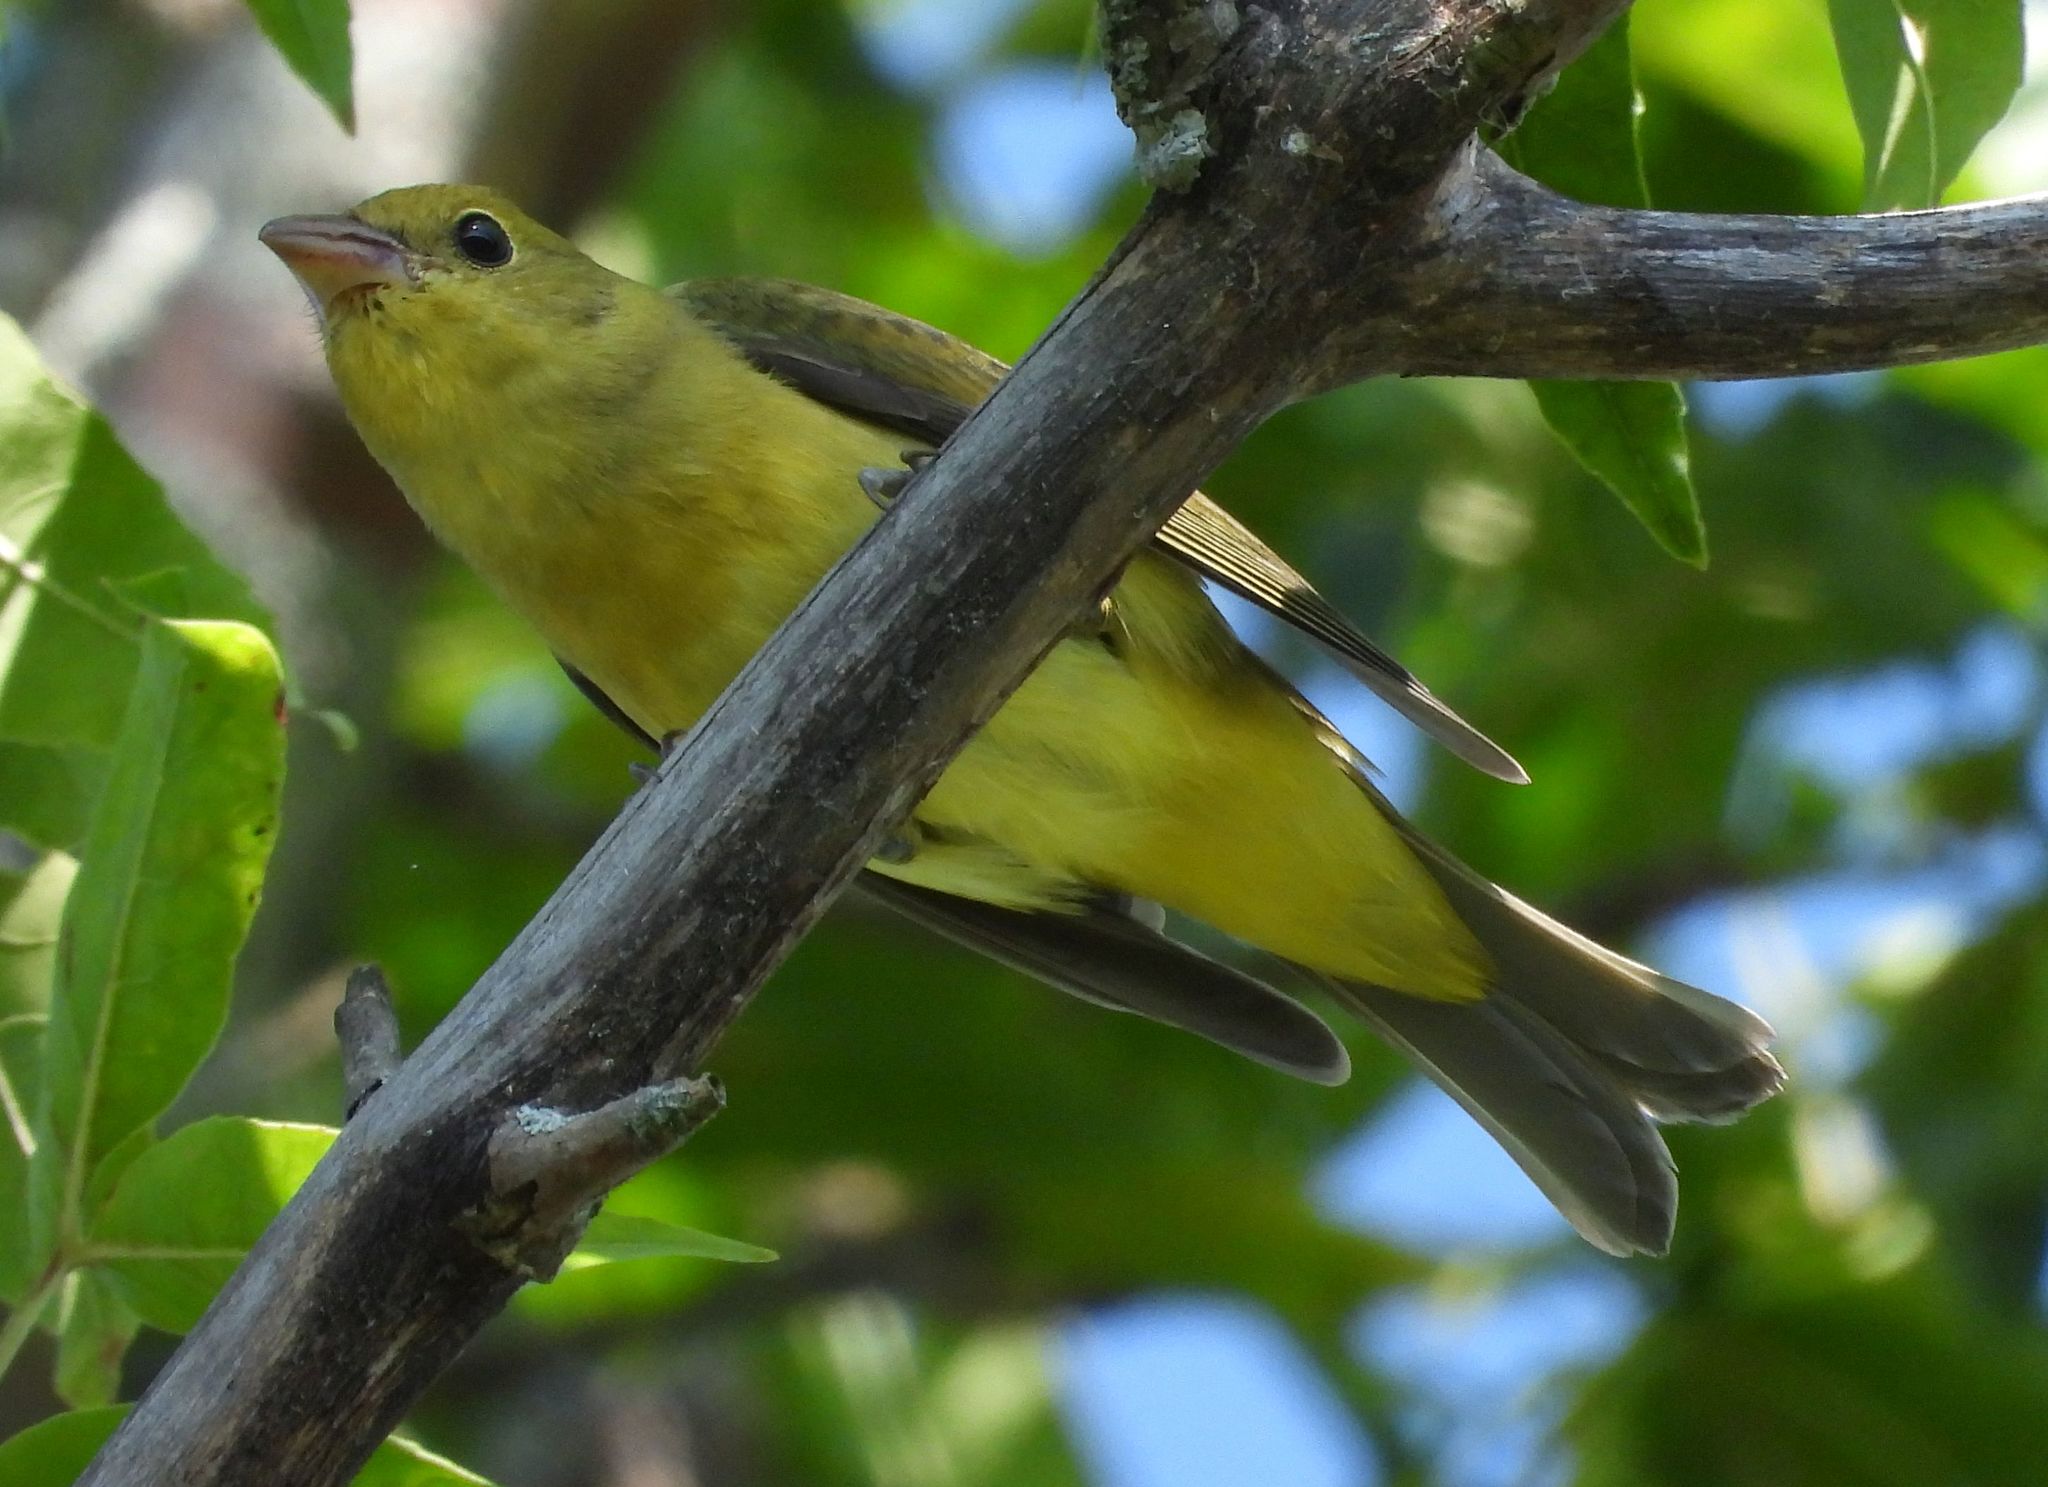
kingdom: Animalia
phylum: Chordata
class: Aves
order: Passeriformes
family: Cardinalidae
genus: Piranga
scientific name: Piranga olivacea
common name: Scarlet tanager
